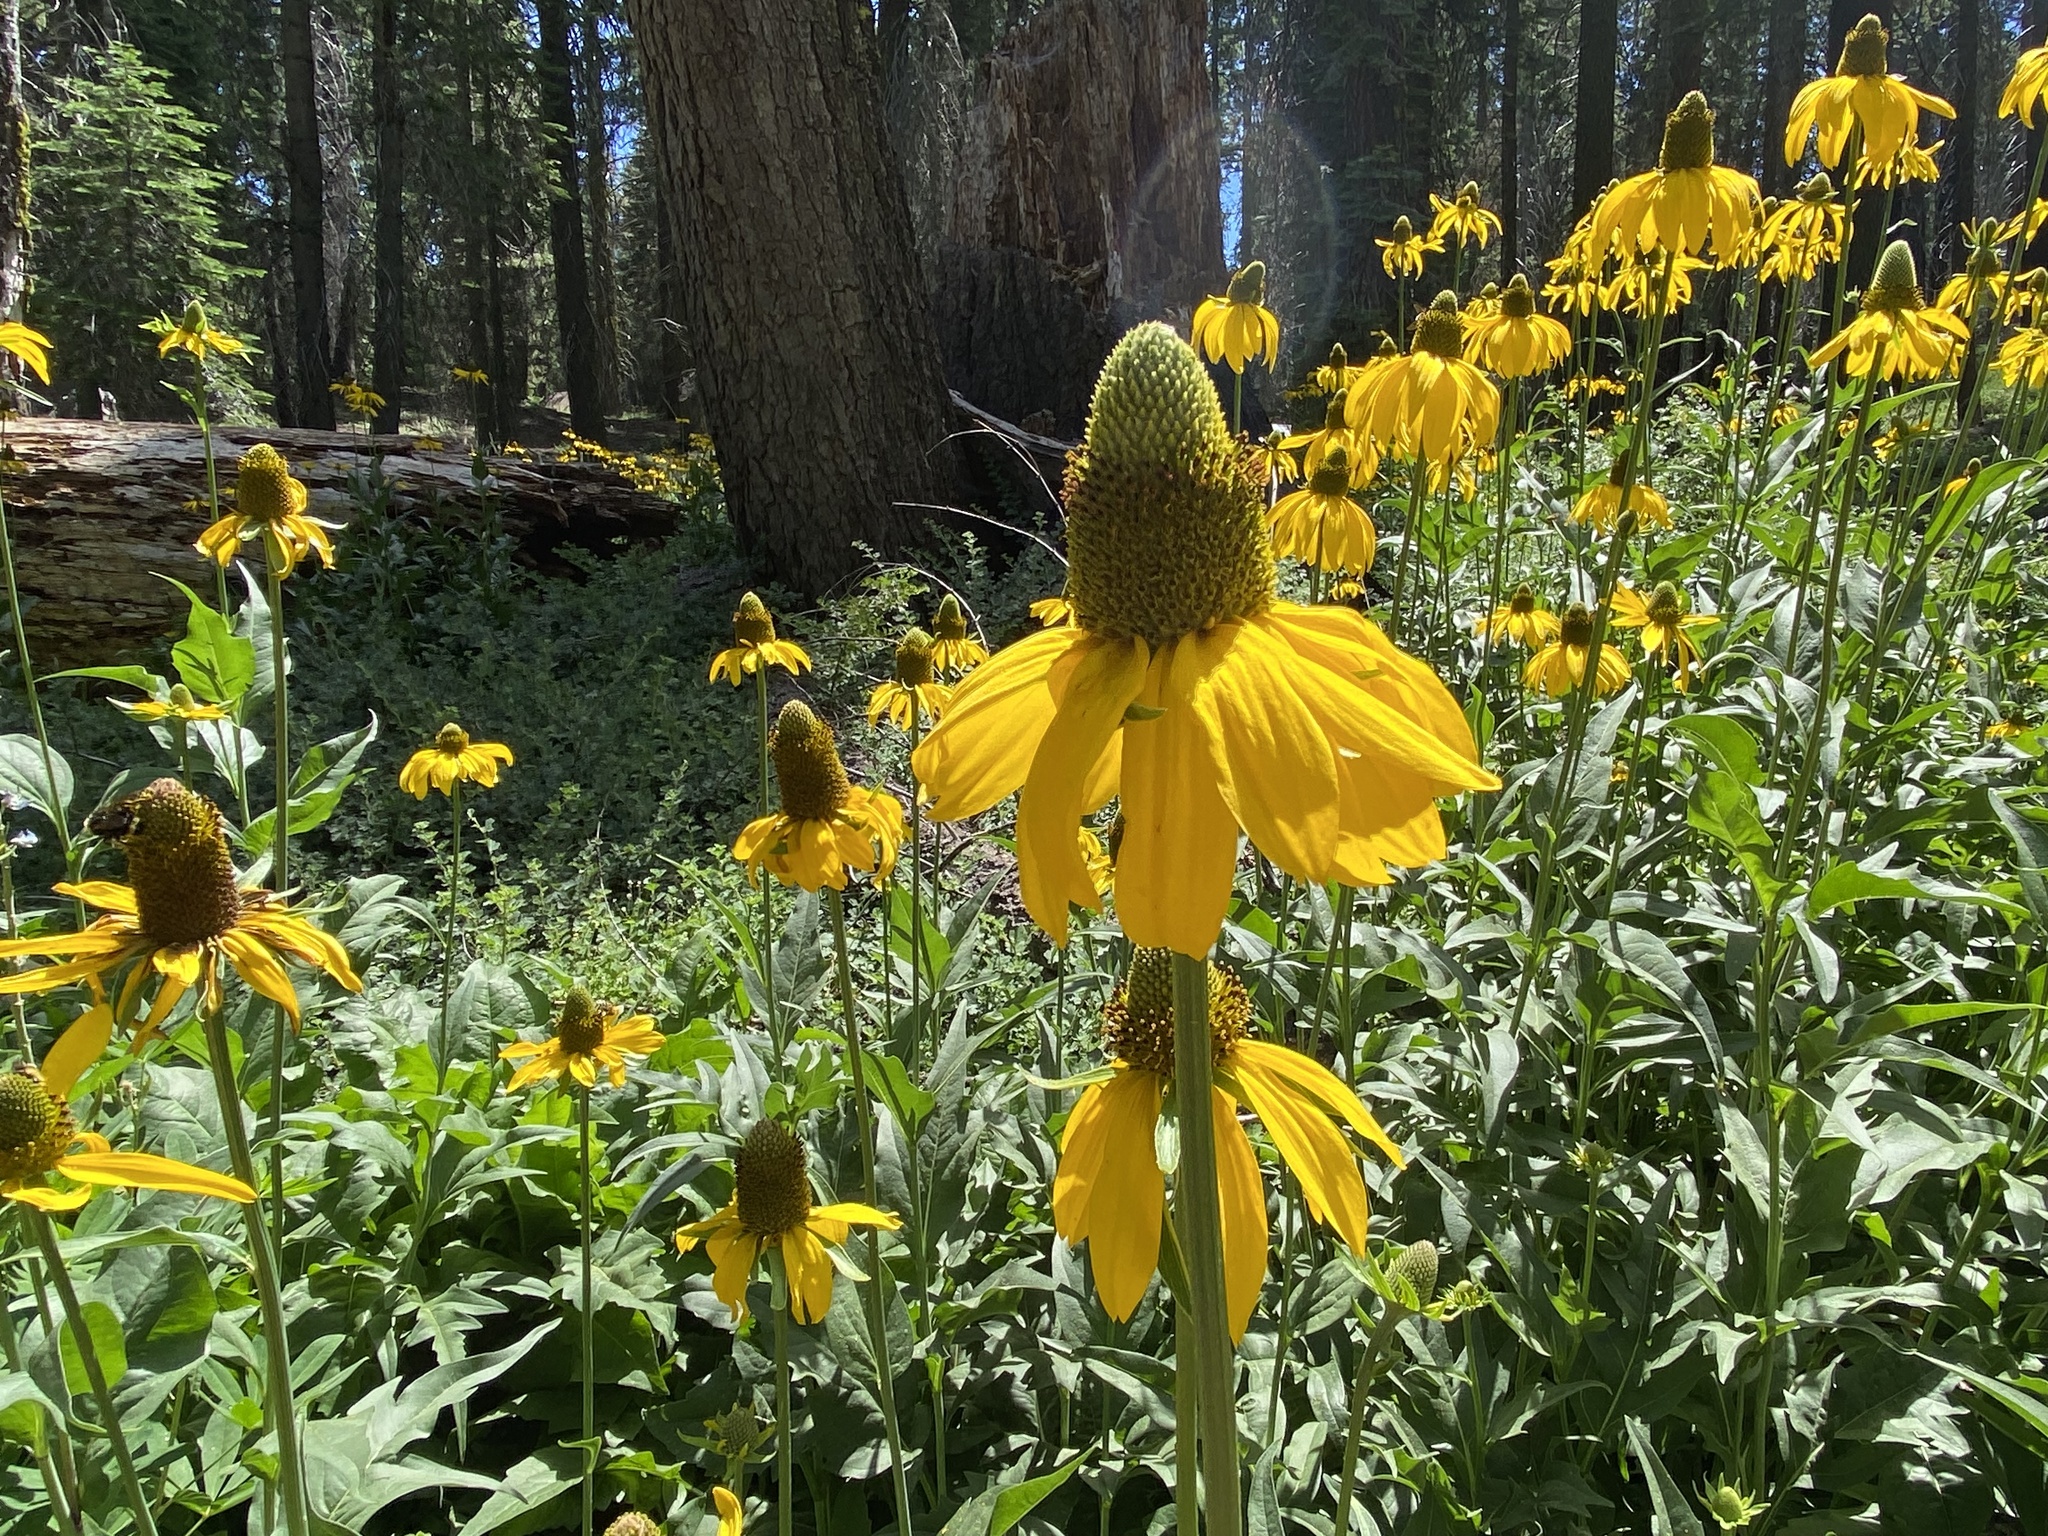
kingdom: Plantae
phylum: Tracheophyta
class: Magnoliopsida
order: Asterales
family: Asteraceae
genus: Rudbeckia
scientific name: Rudbeckia californica
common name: California coneflower
